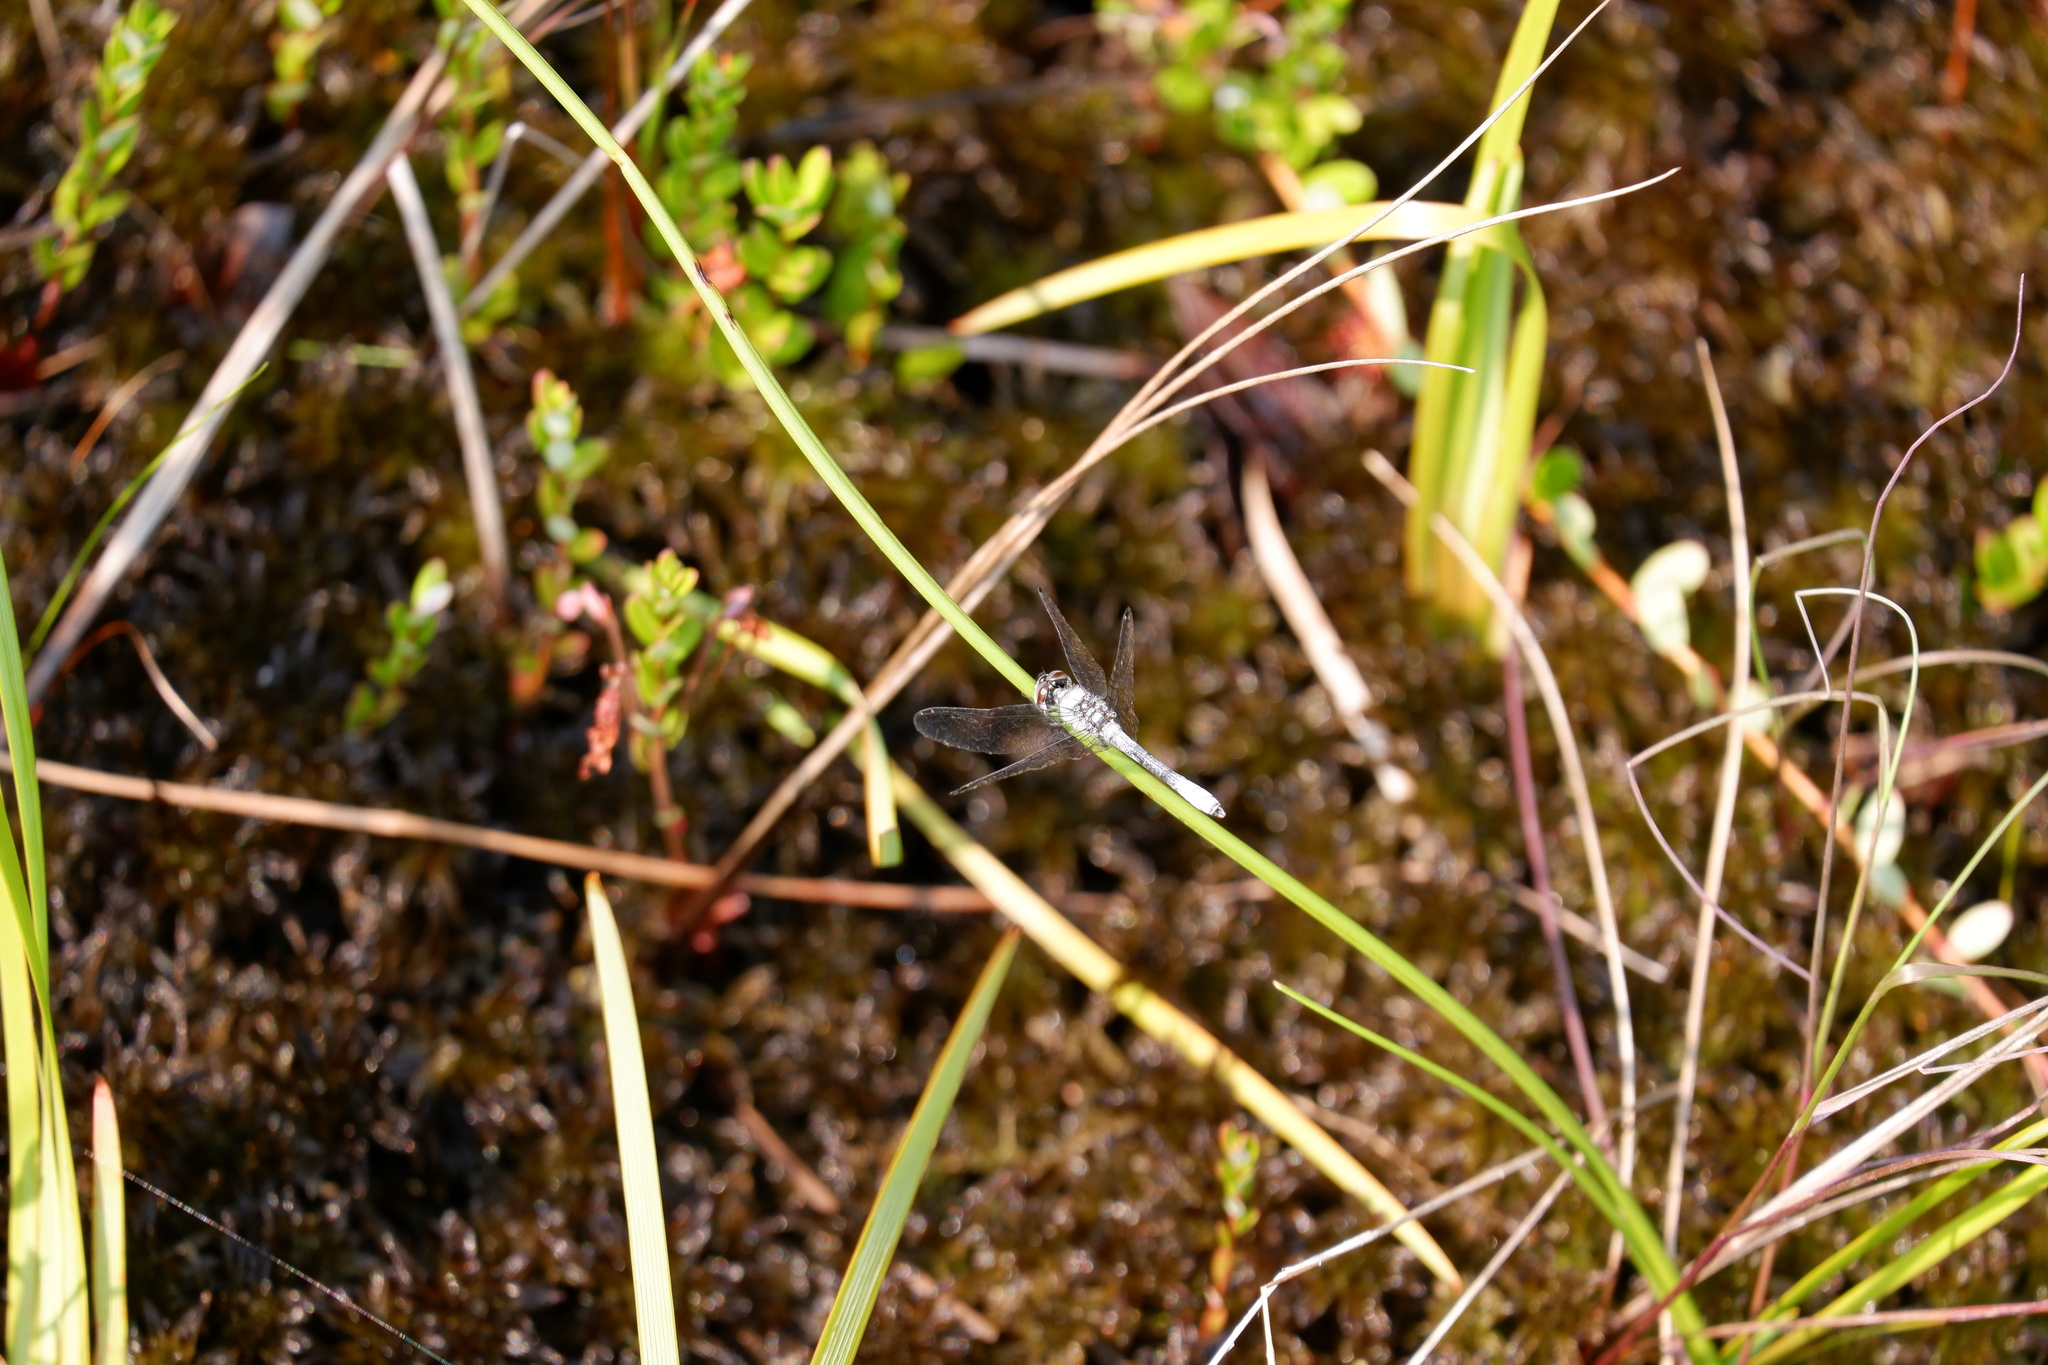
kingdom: Animalia
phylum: Arthropoda
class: Insecta
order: Odonata
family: Libellulidae
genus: Nannothemis
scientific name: Nannothemis bella
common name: Elfin skimmer
